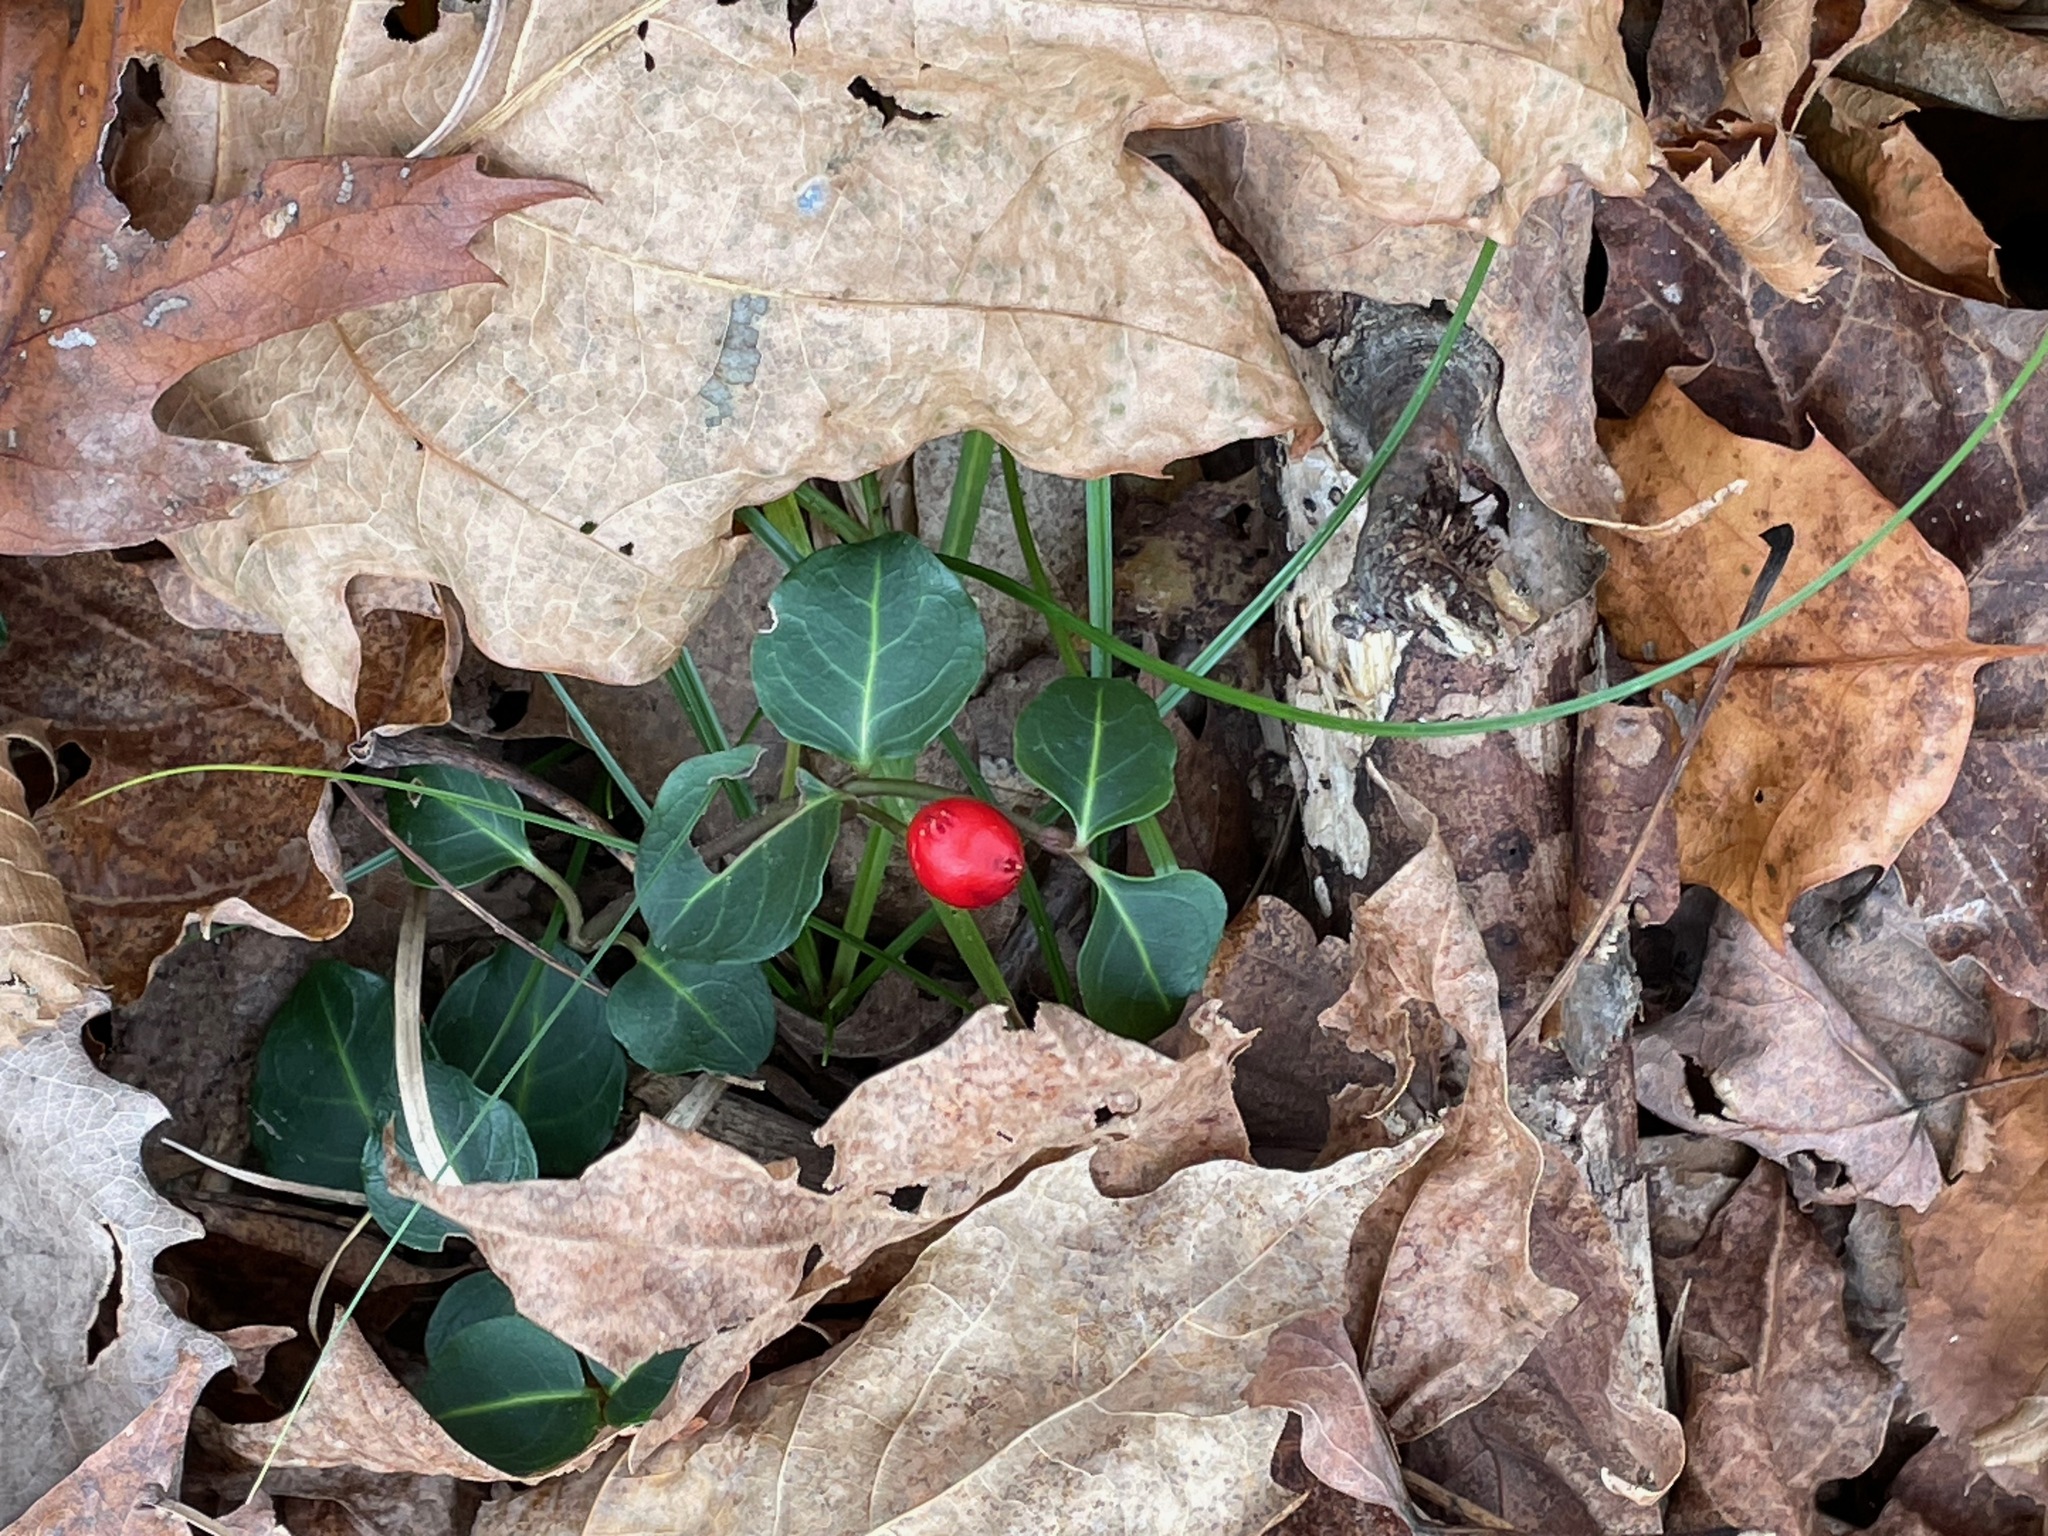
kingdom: Plantae
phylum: Tracheophyta
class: Magnoliopsida
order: Gentianales
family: Rubiaceae
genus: Mitchella
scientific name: Mitchella repens
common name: Partridge-berry
